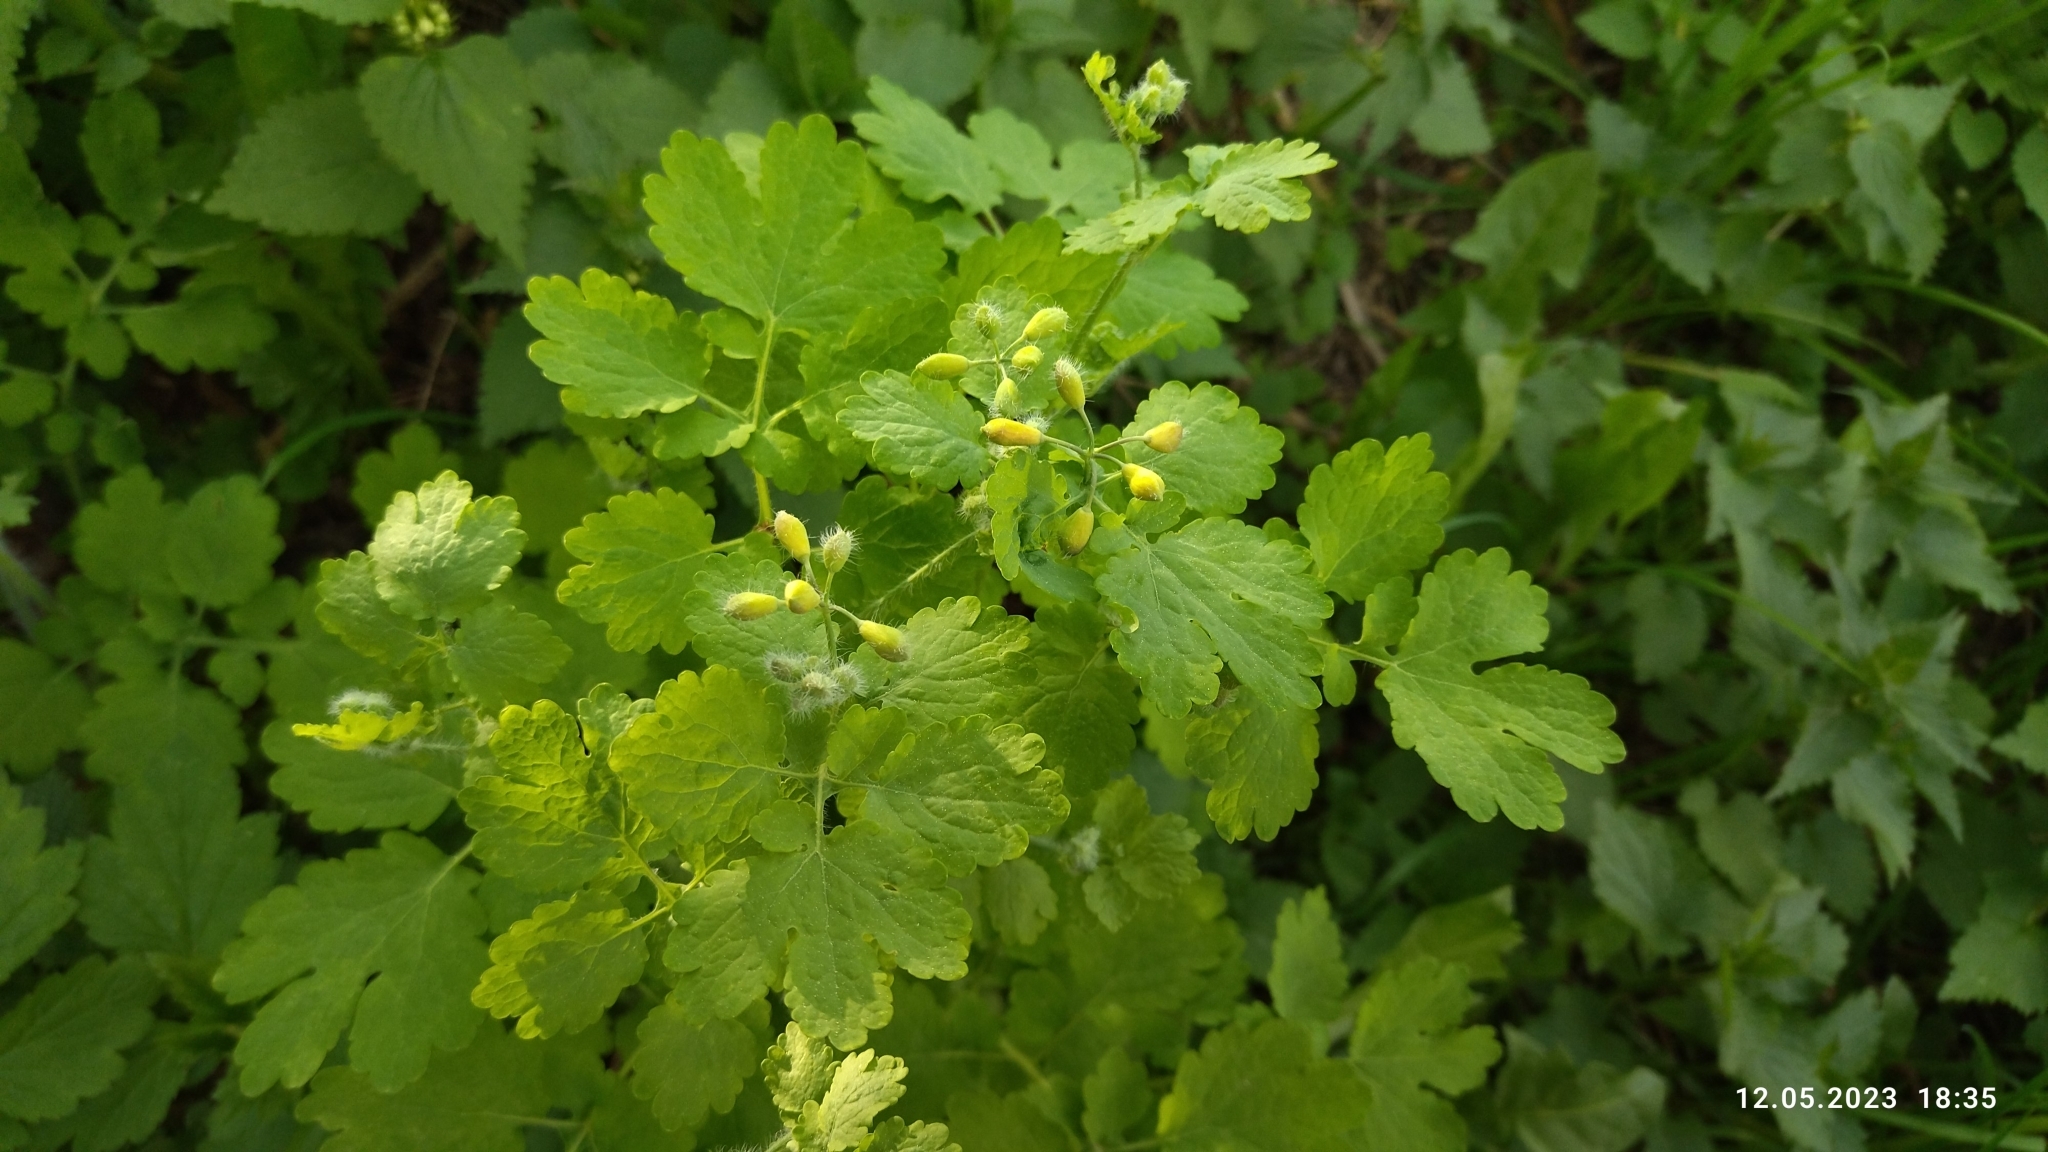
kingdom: Plantae
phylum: Tracheophyta
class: Magnoliopsida
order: Ranunculales
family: Papaveraceae
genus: Chelidonium
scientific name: Chelidonium majus
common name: Greater celandine
